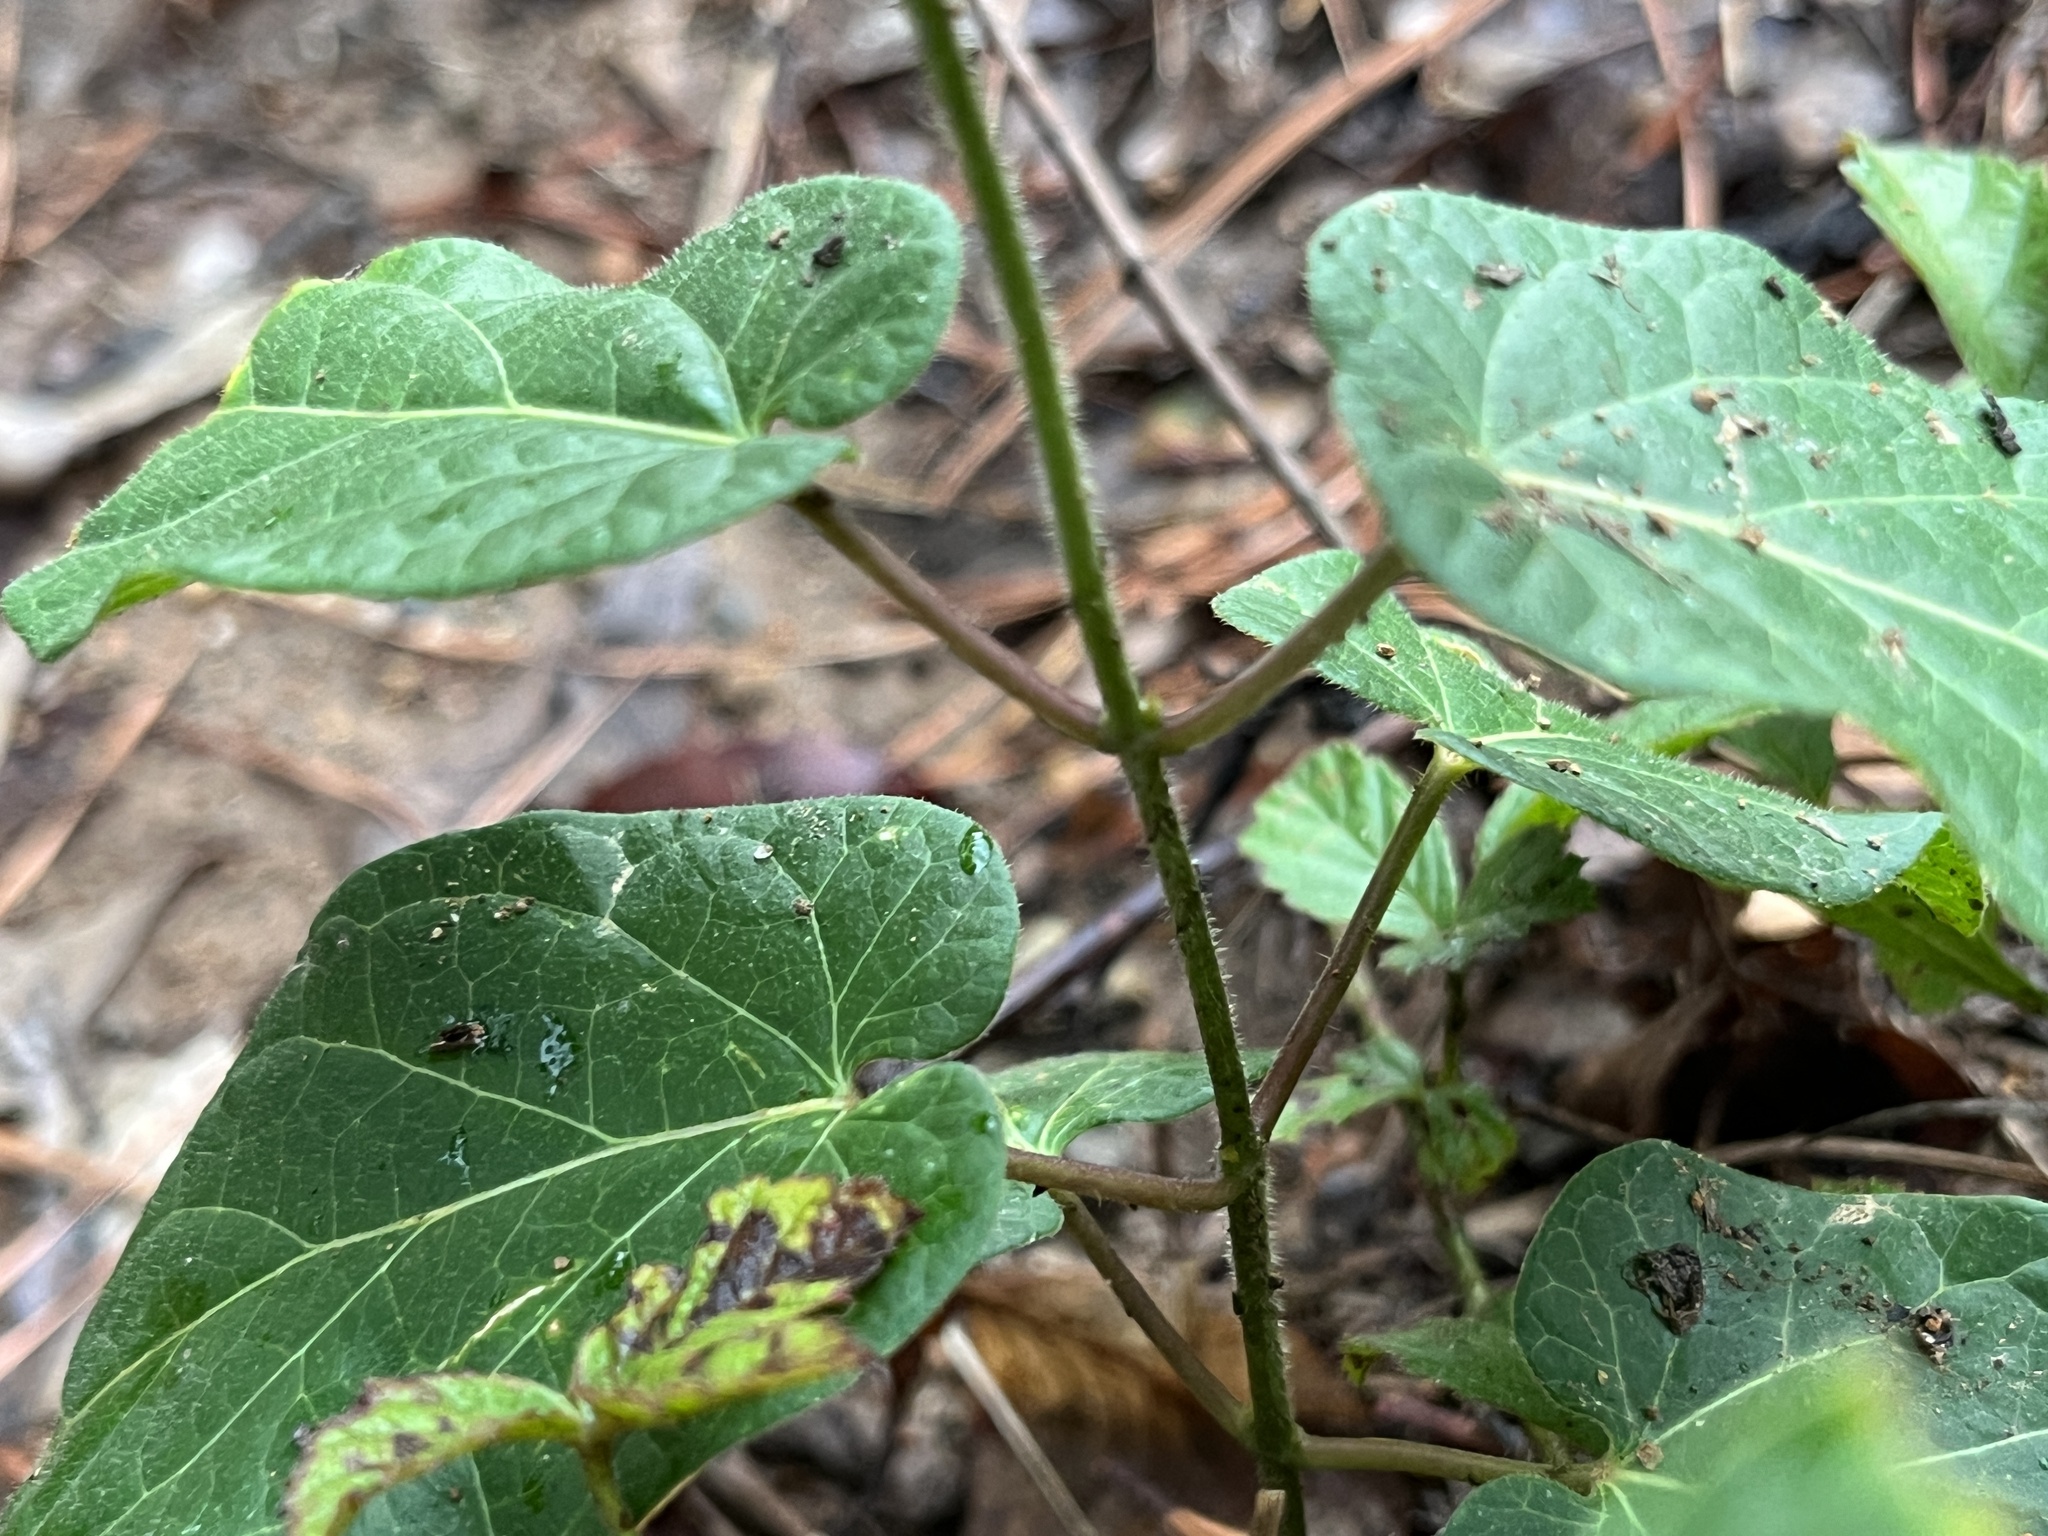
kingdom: Plantae
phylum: Tracheophyta
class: Magnoliopsida
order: Gentianales
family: Apocynaceae
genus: Gonolobus
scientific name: Gonolobus suberosus
